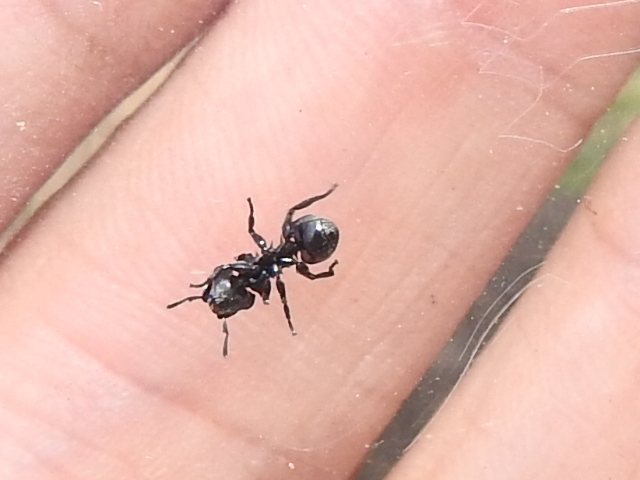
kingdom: Animalia
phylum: Arthropoda
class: Insecta
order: Hymenoptera
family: Formicidae
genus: Cephalotes
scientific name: Cephalotes basalis
